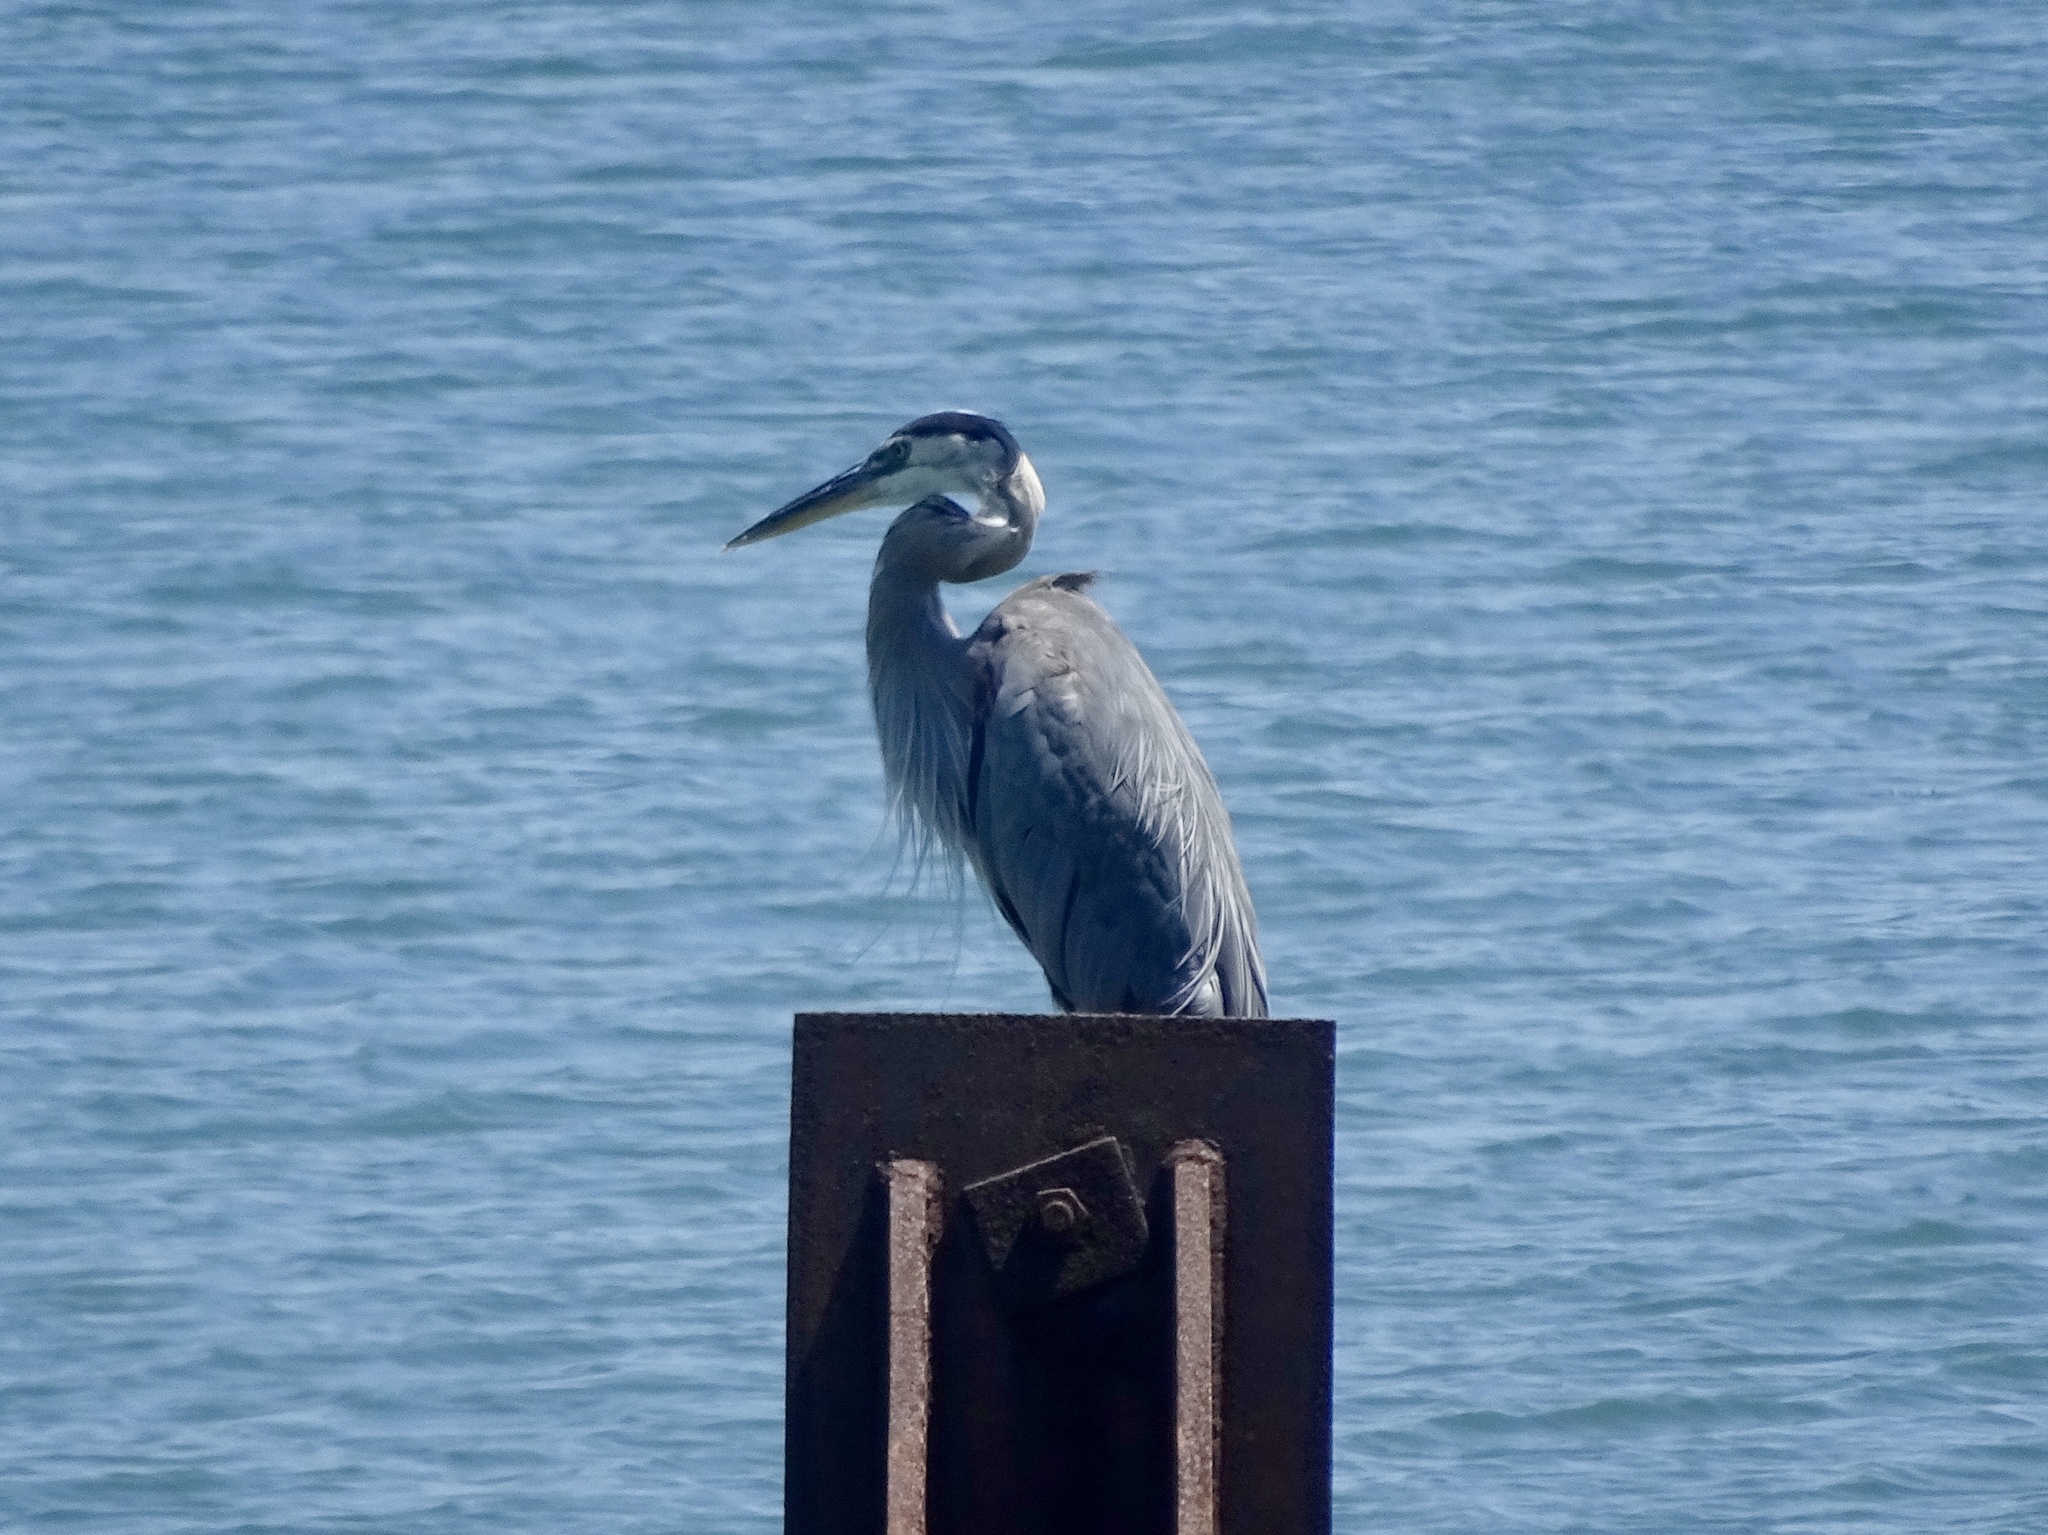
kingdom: Animalia
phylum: Chordata
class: Aves
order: Pelecaniformes
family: Ardeidae
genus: Ardea
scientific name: Ardea herodias
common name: Great blue heron
